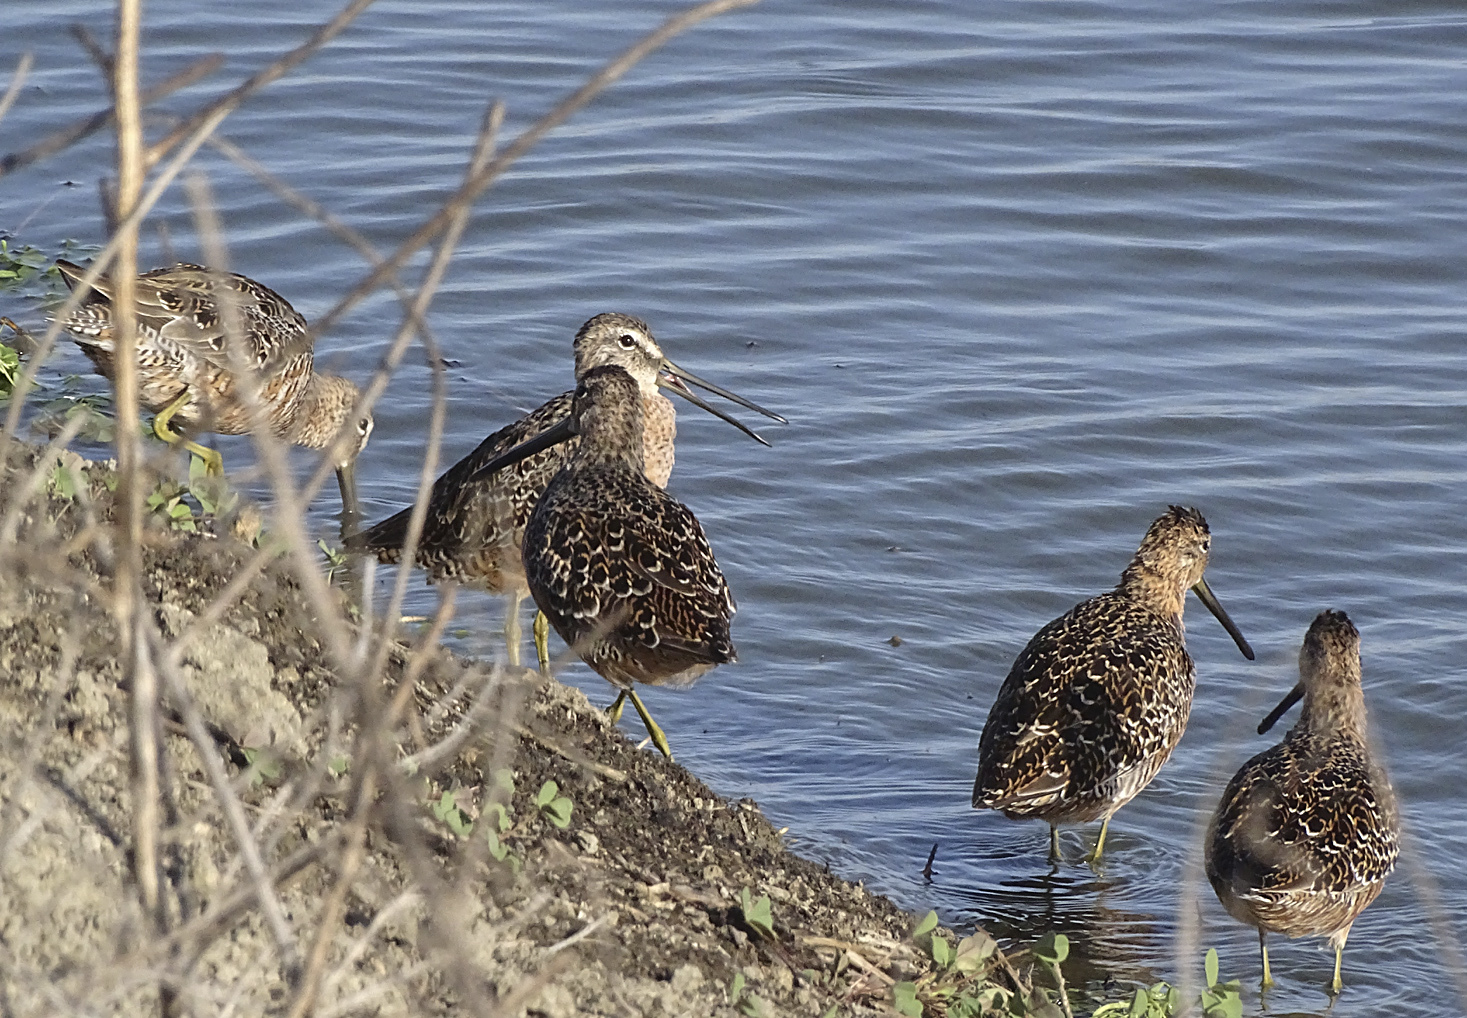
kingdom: Animalia
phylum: Chordata
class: Aves
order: Charadriiformes
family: Scolopacidae
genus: Limnodromus
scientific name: Limnodromus scolopaceus
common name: Long-billed dowitcher
